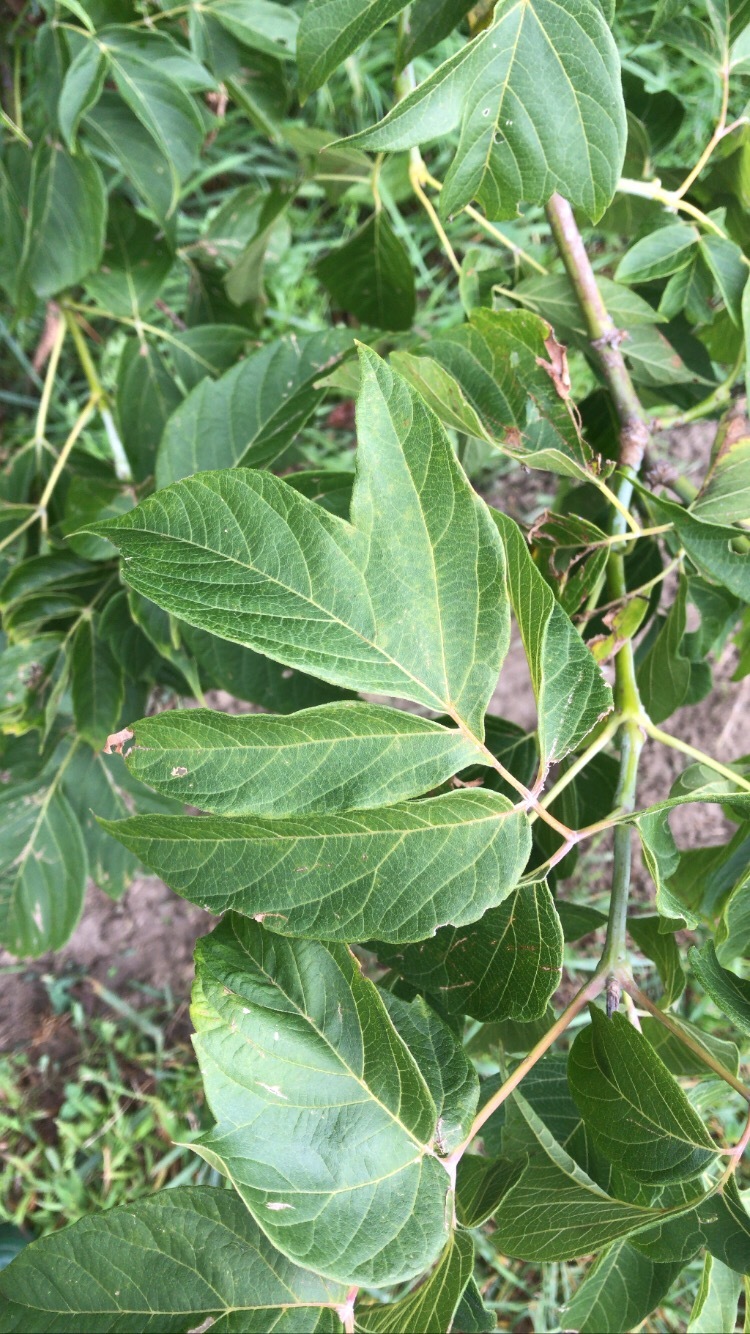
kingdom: Plantae
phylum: Tracheophyta
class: Magnoliopsida
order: Sapindales
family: Sapindaceae
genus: Acer
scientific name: Acer negundo
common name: Ashleaf maple
